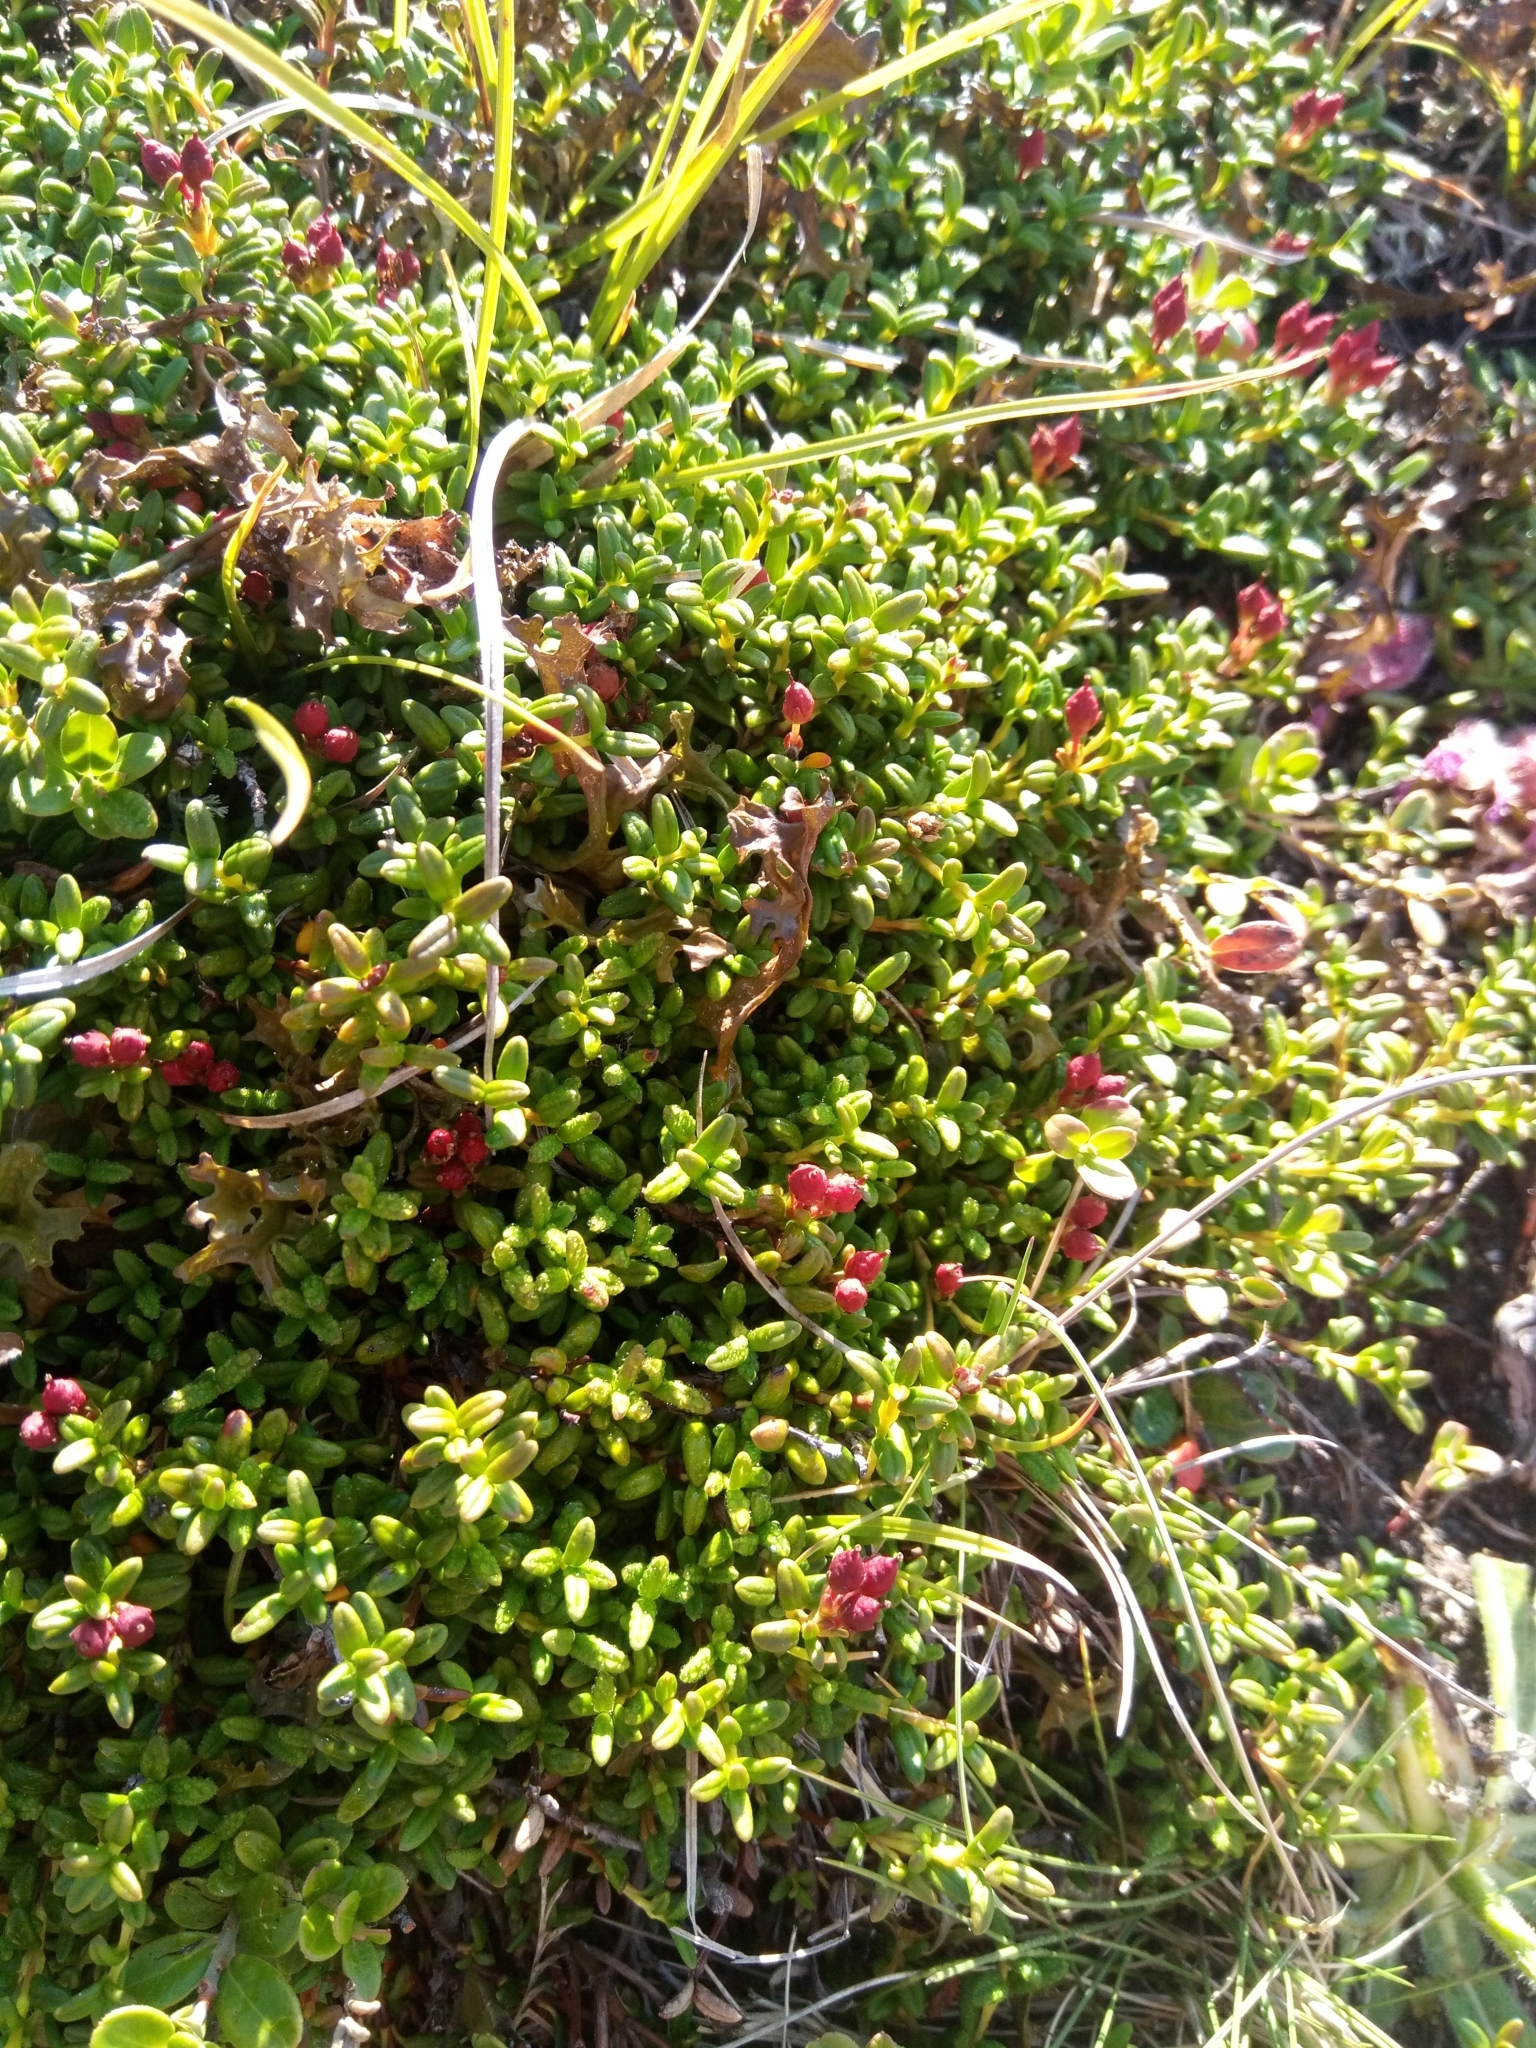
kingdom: Plantae
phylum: Tracheophyta
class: Magnoliopsida
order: Ericales
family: Ericaceae
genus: Kalmia
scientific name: Kalmia procumbens
